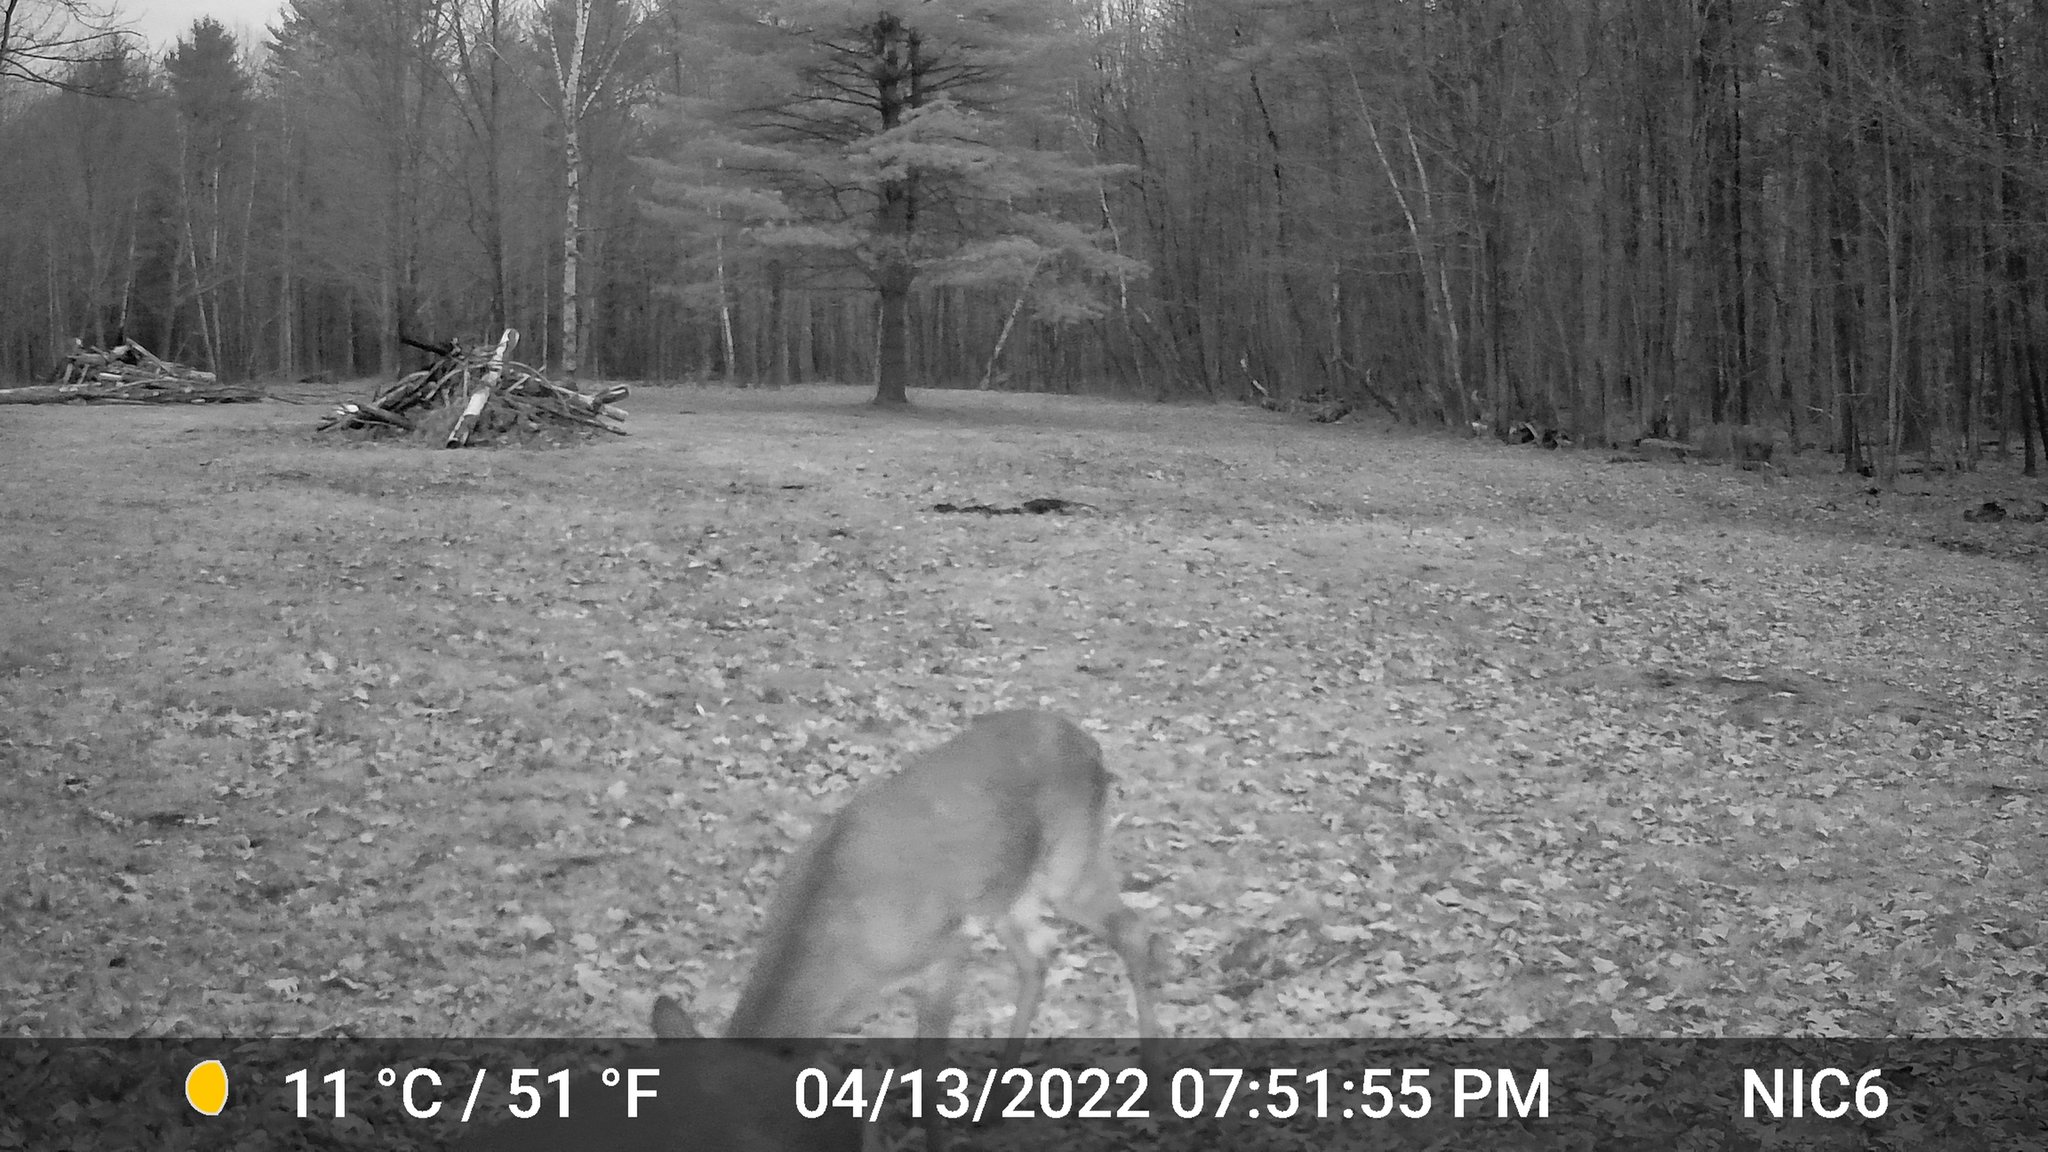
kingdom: Animalia
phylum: Chordata
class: Mammalia
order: Artiodactyla
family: Cervidae
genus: Odocoileus
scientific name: Odocoileus virginianus
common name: White-tailed deer
